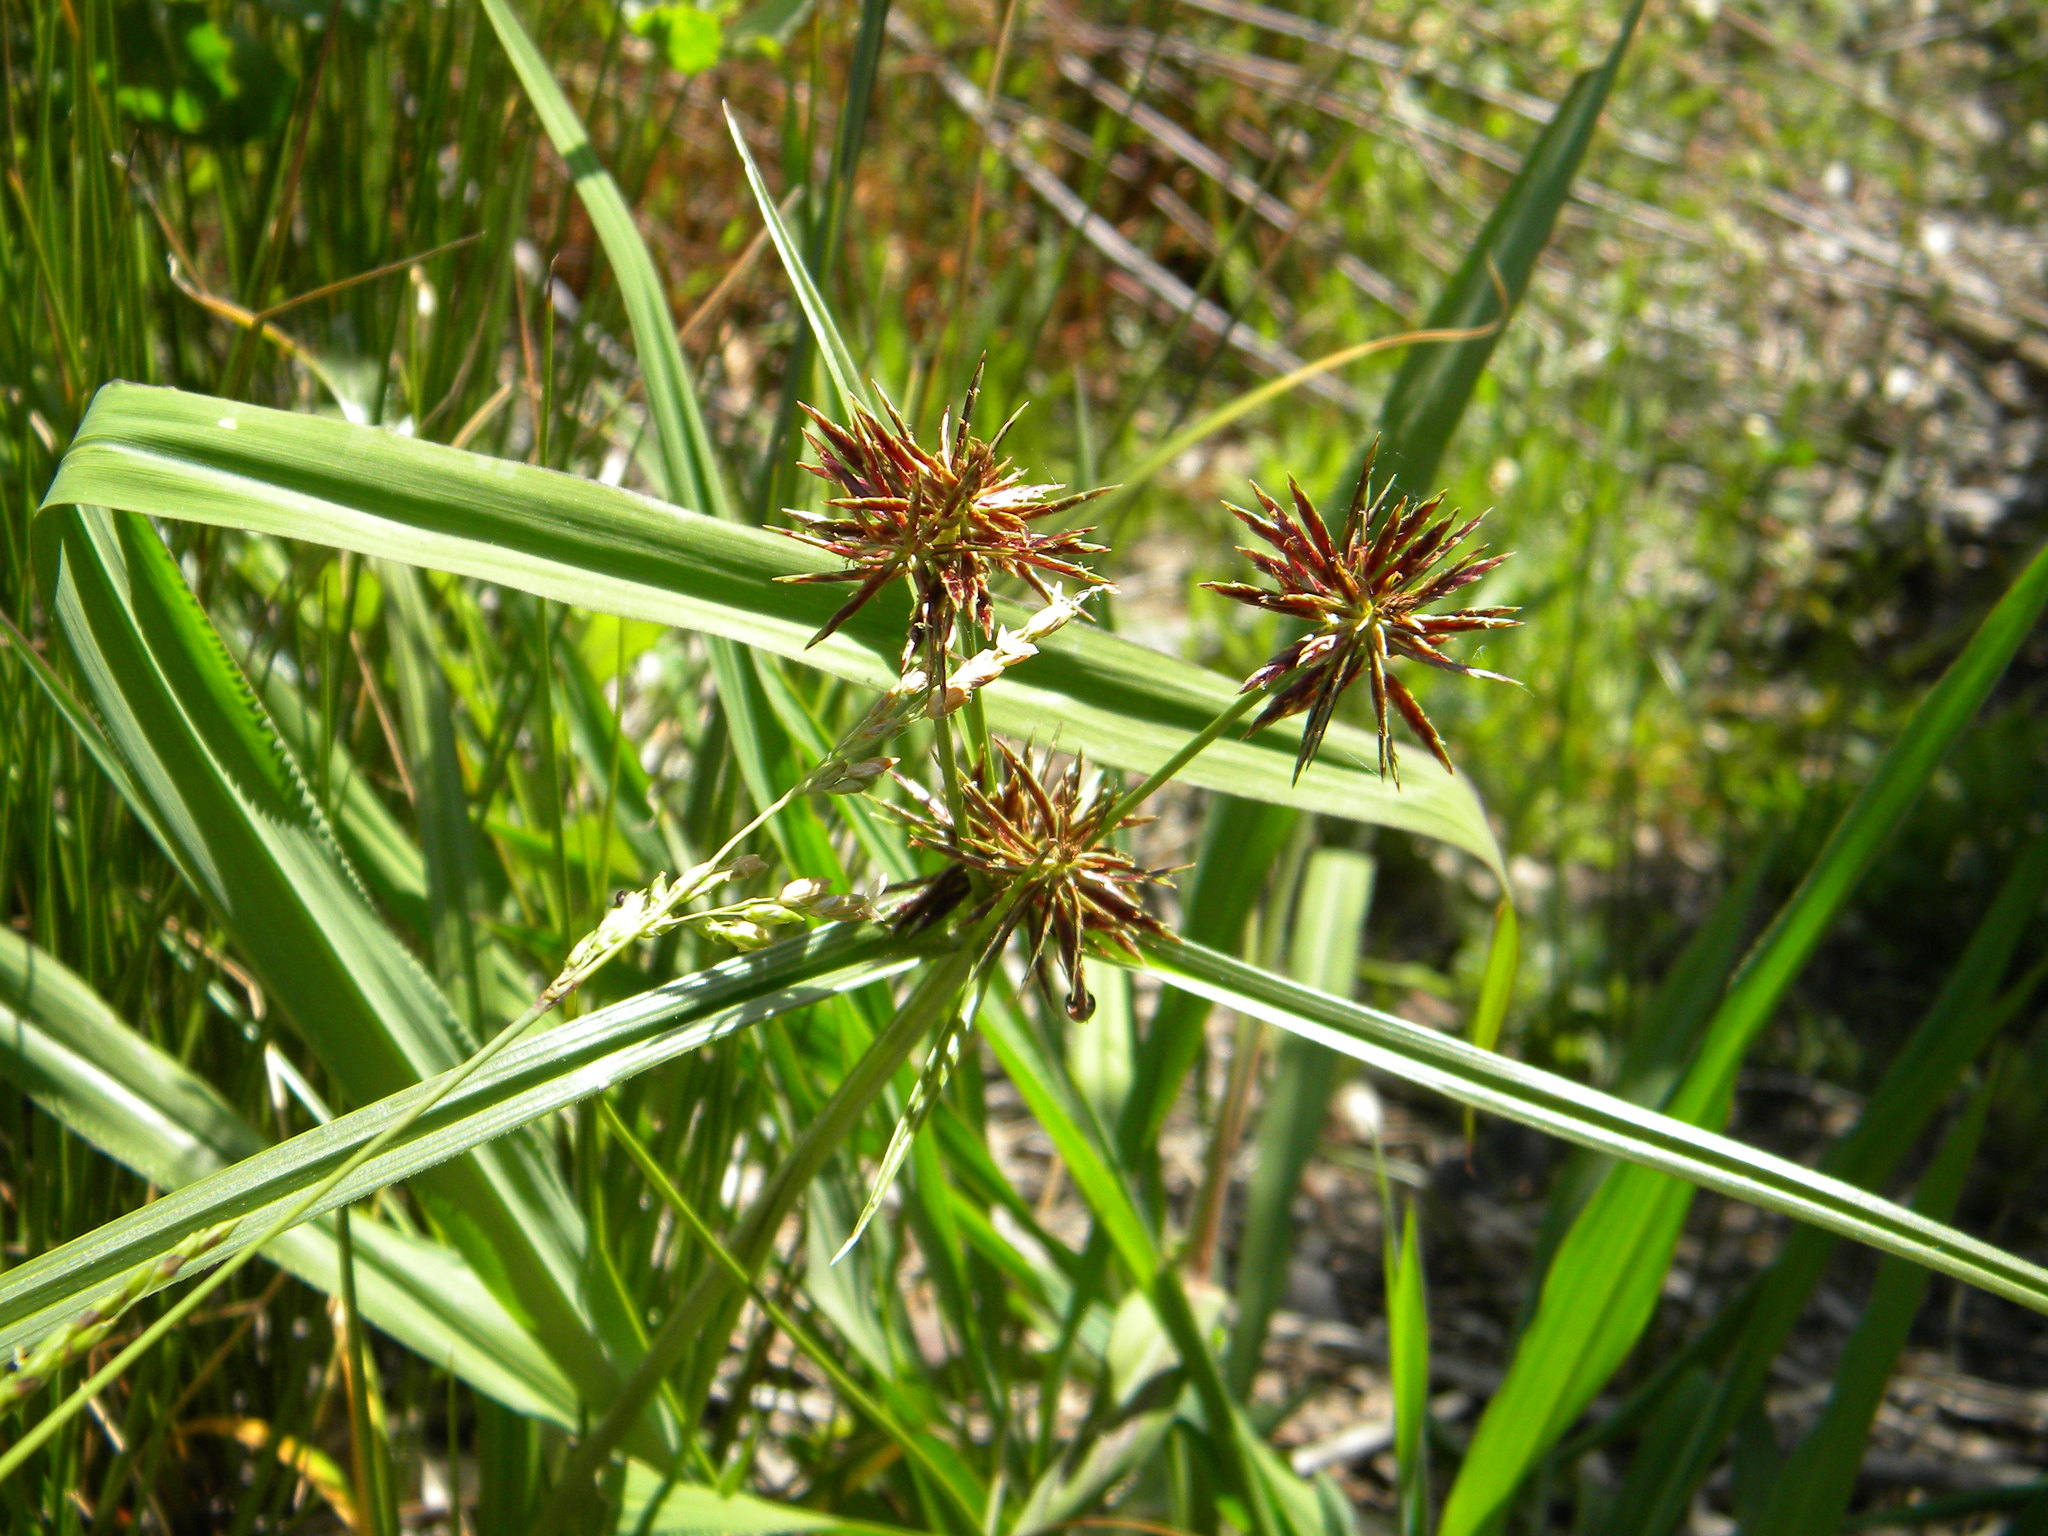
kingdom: Plantae
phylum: Tracheophyta
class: Liliopsida
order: Poales
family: Cyperaceae
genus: Cyperus
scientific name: Cyperus congestus
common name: Dense flat sedge
